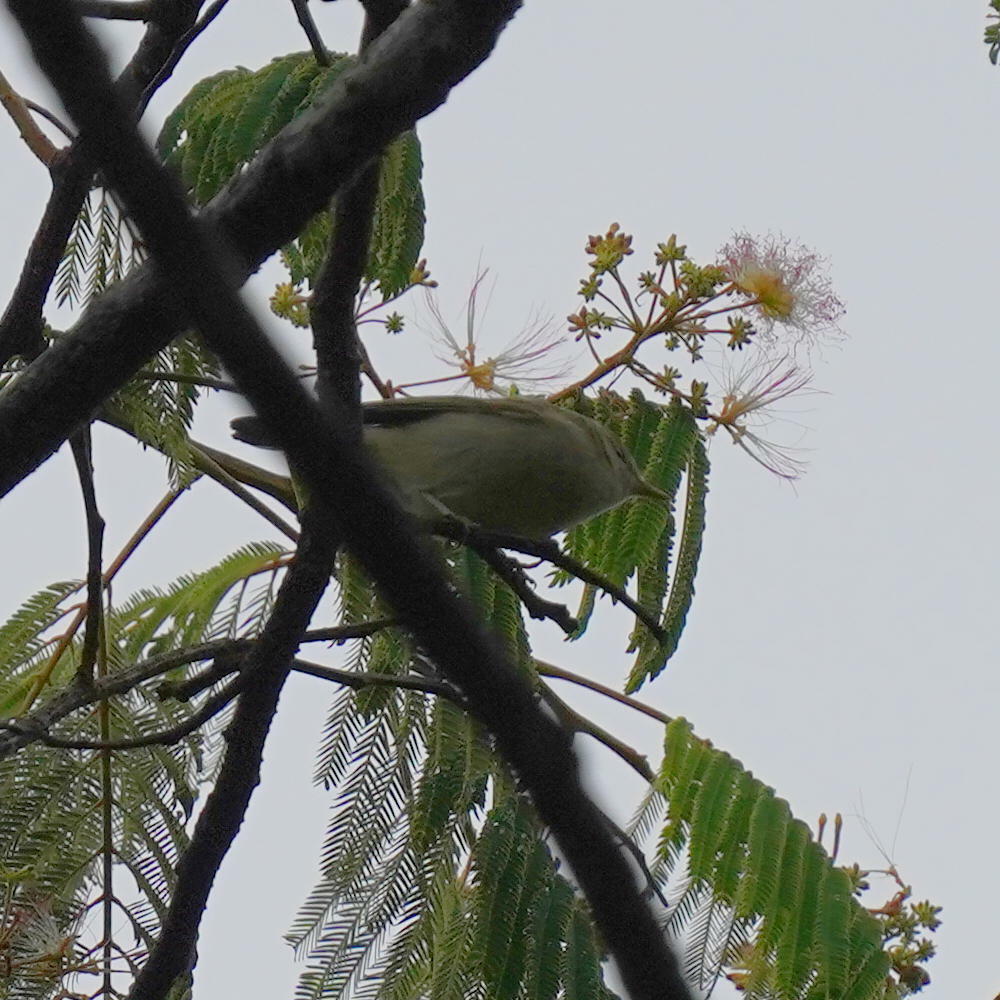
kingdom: Animalia
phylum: Chordata
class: Aves
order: Passeriformes
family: Phylloscopidae
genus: Phylloscopus
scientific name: Phylloscopus trochiloides
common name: Greenish warbler
